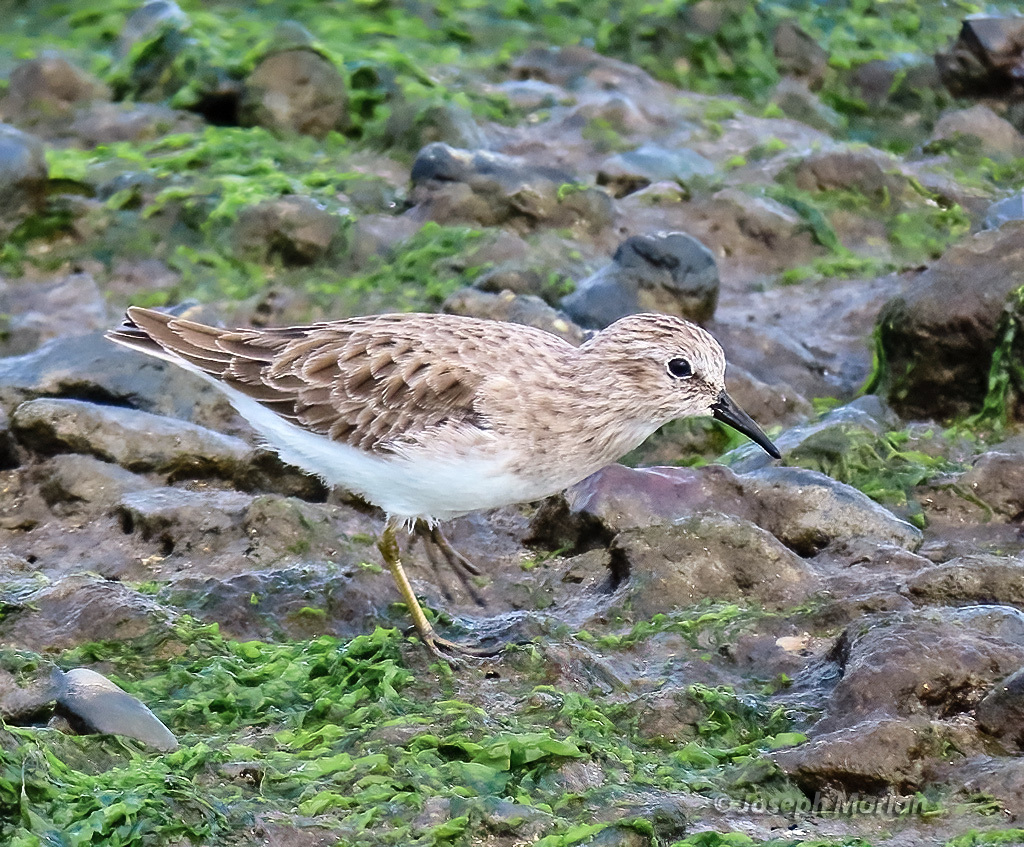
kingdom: Animalia
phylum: Chordata
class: Aves
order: Charadriiformes
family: Scolopacidae
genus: Calidris
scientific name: Calidris minutilla
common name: Least sandpiper
